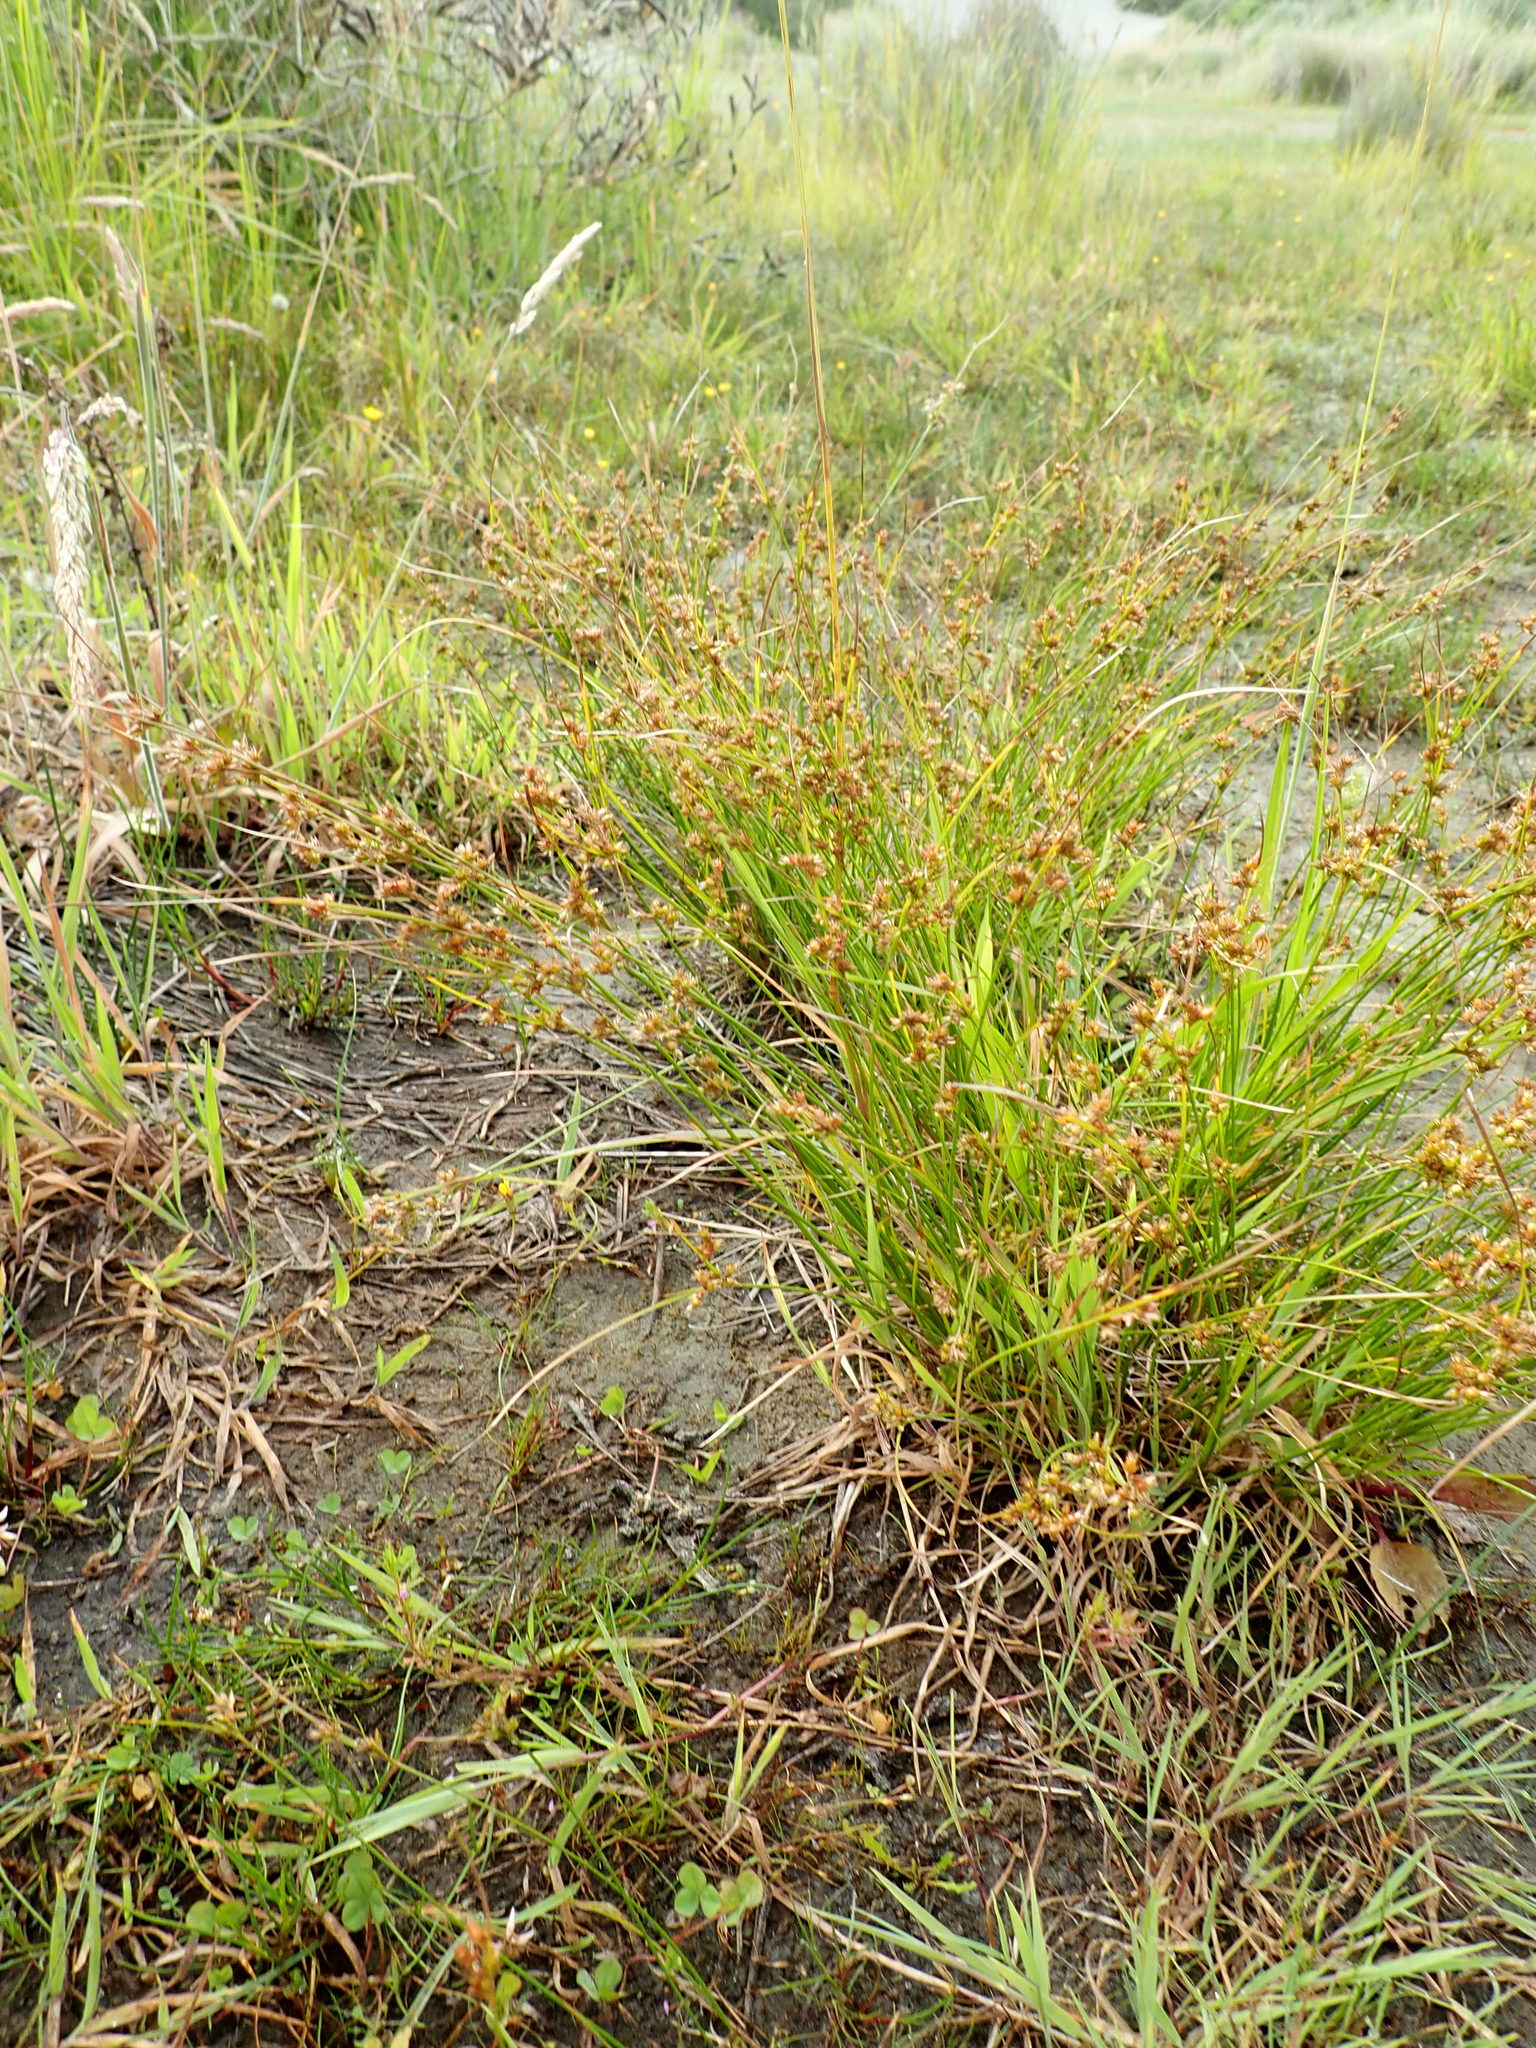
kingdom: Plantae
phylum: Tracheophyta
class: Liliopsida
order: Poales
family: Juncaceae
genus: Juncus
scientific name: Juncus tenuis
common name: Slender rush
